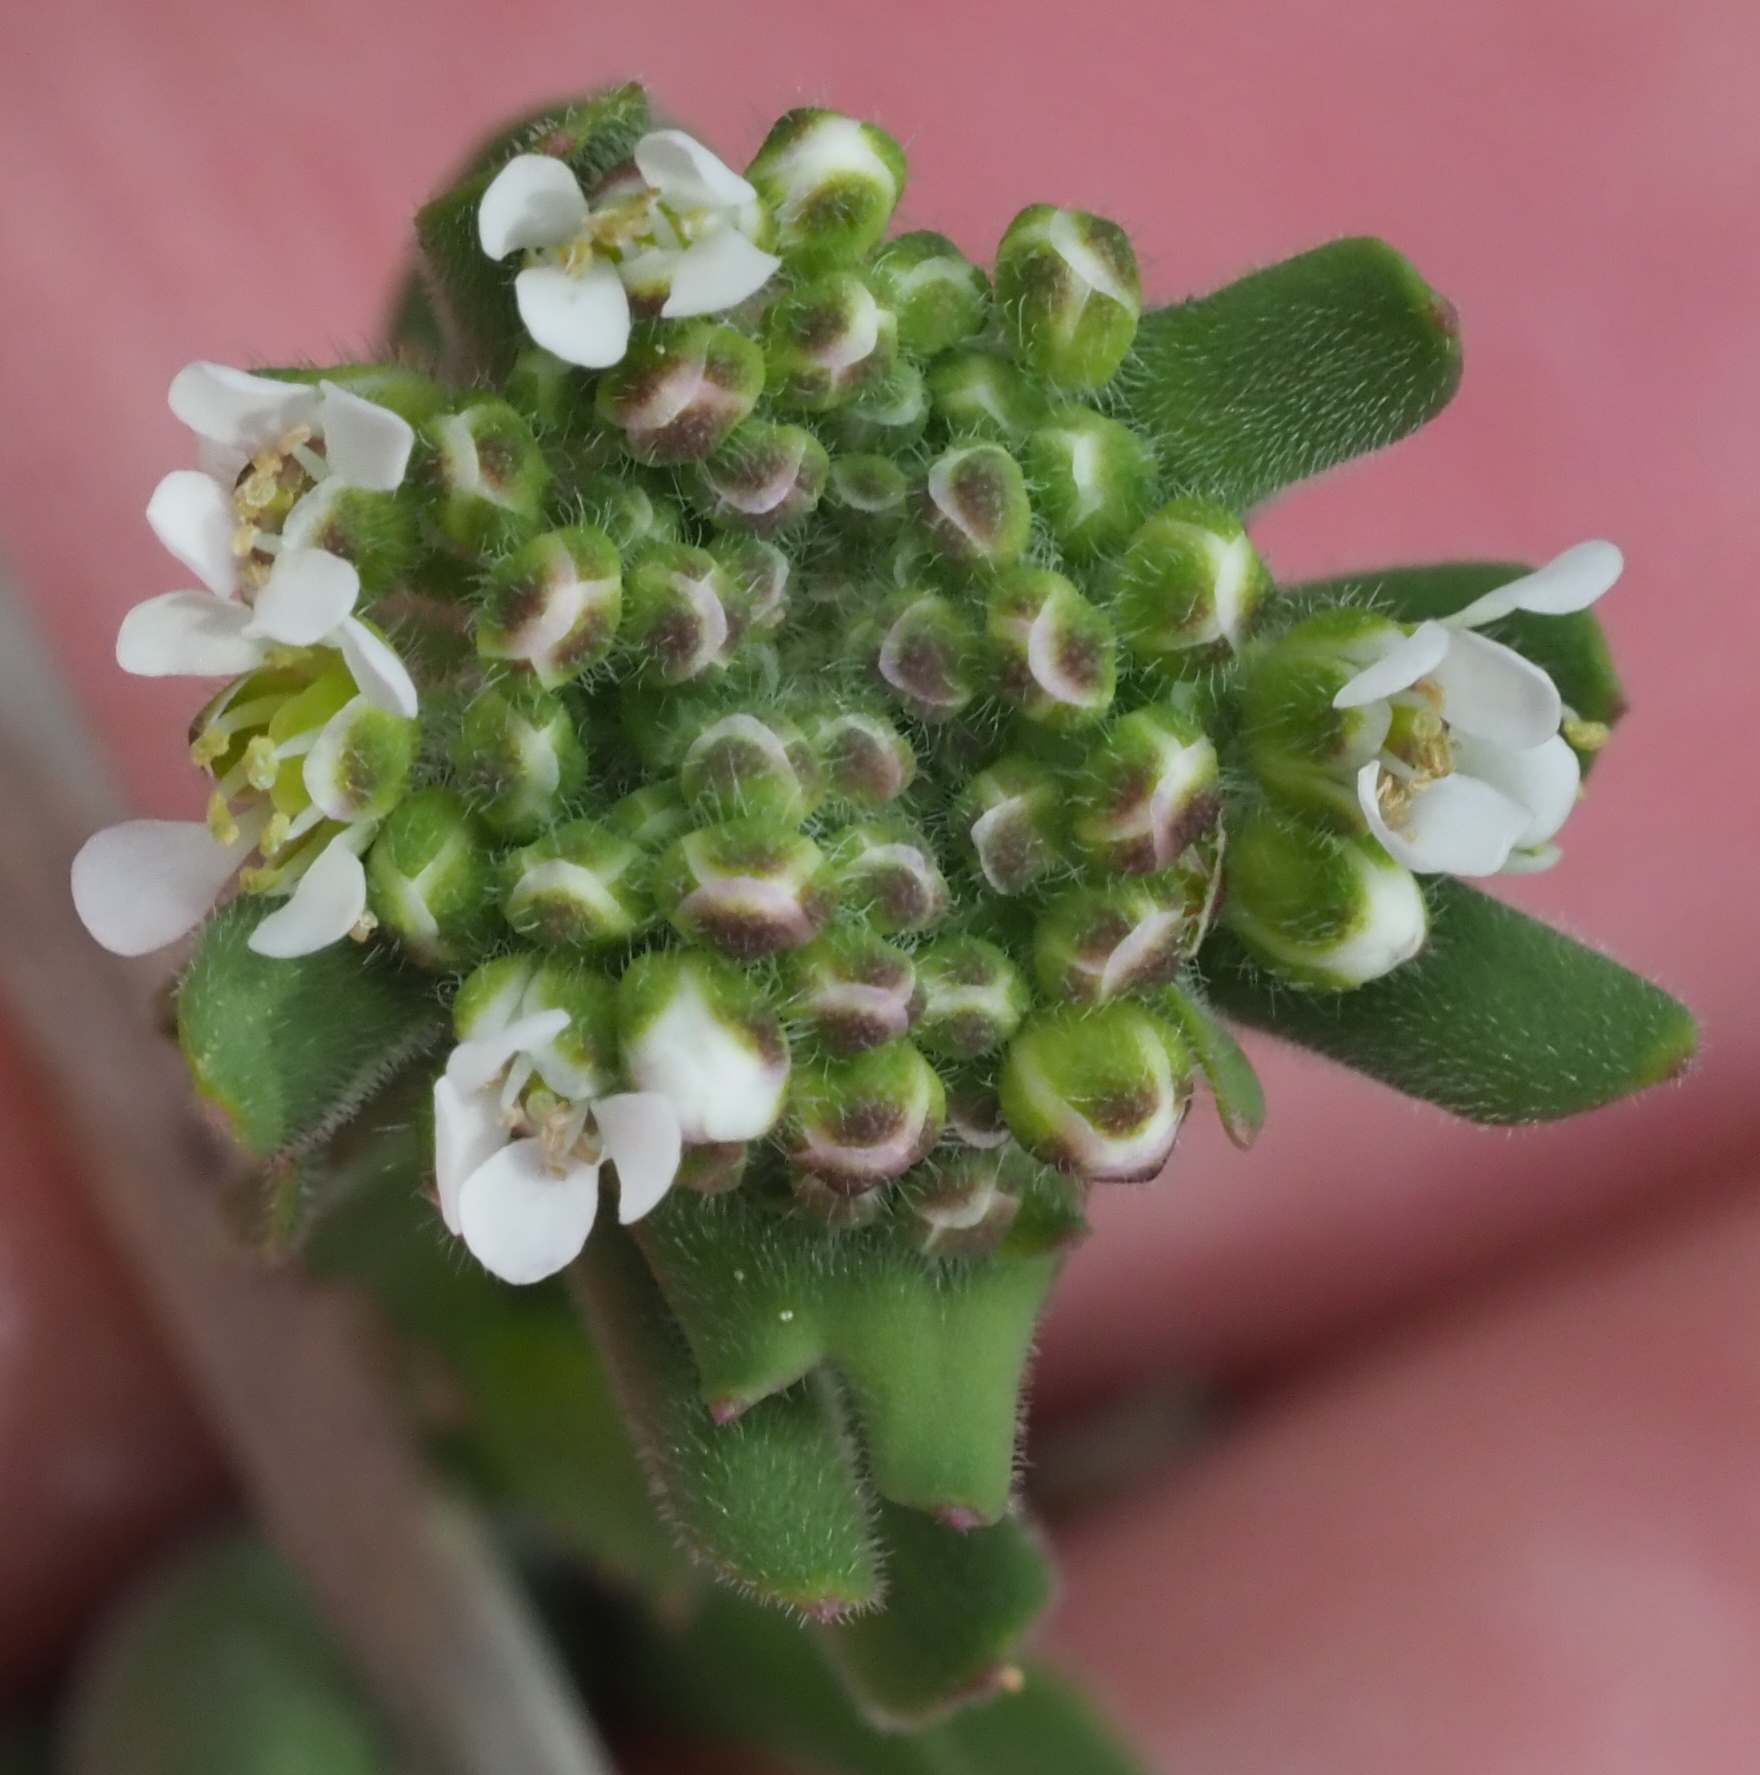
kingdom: Plantae
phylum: Tracheophyta
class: Magnoliopsida
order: Brassicales
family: Brassicaceae
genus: Lepidium
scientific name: Lepidium campestre
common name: Field pepperwort
